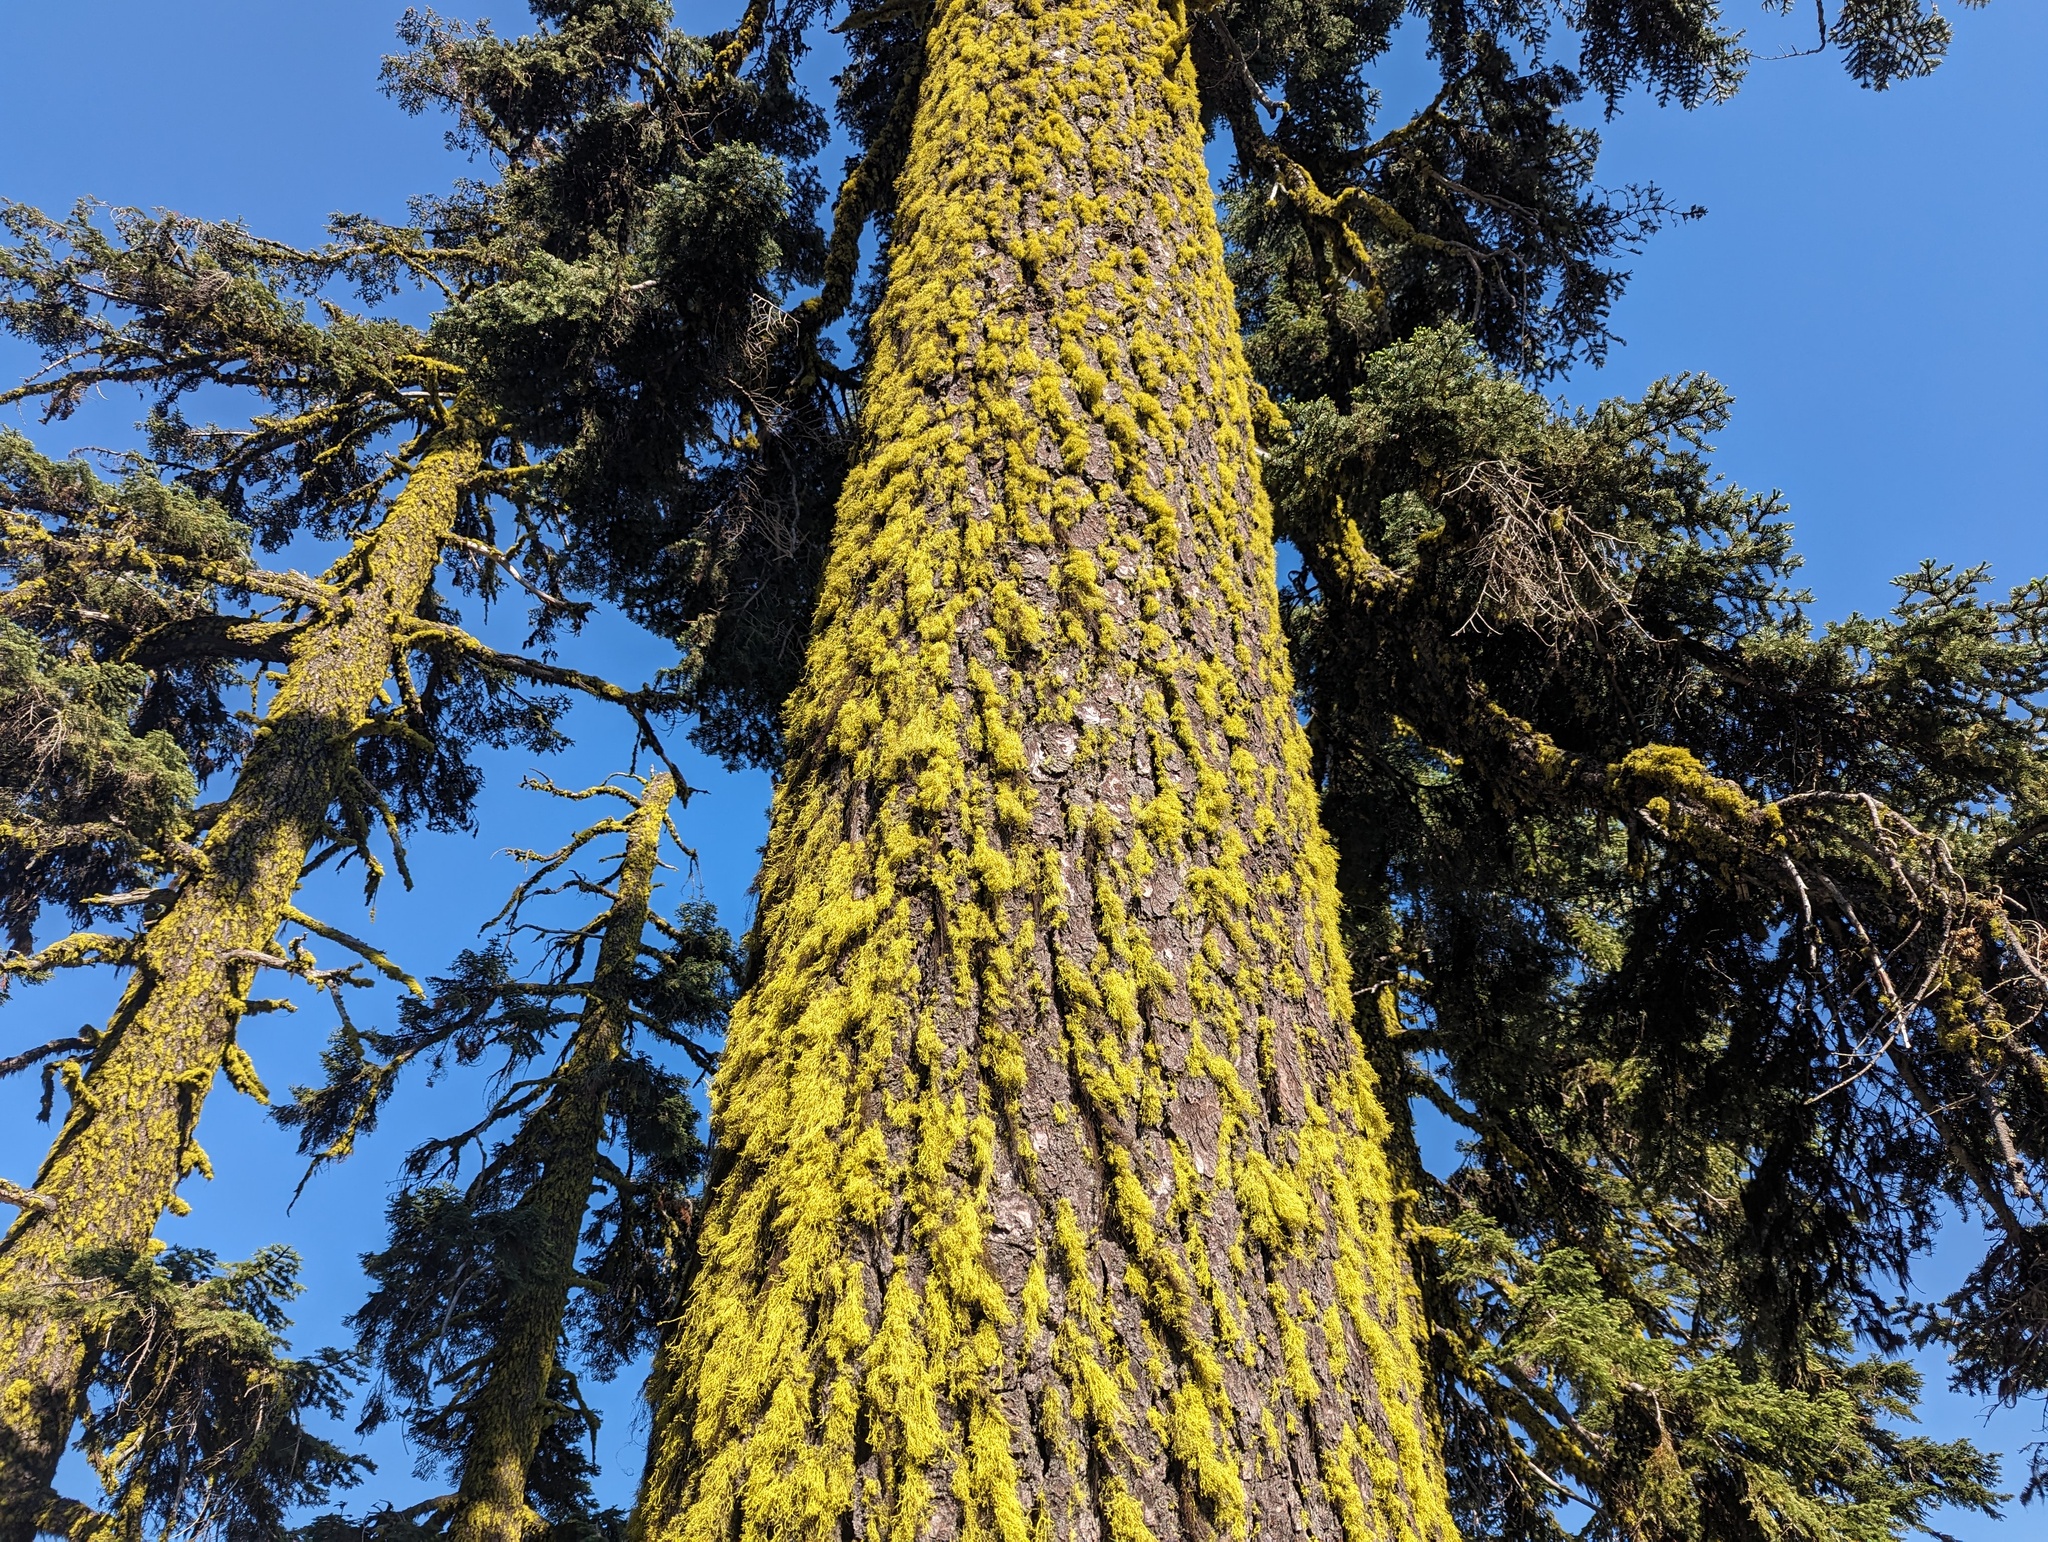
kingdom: Fungi
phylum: Ascomycota
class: Lecanoromycetes
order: Lecanorales
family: Parmeliaceae
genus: Letharia
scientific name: Letharia vulpina
